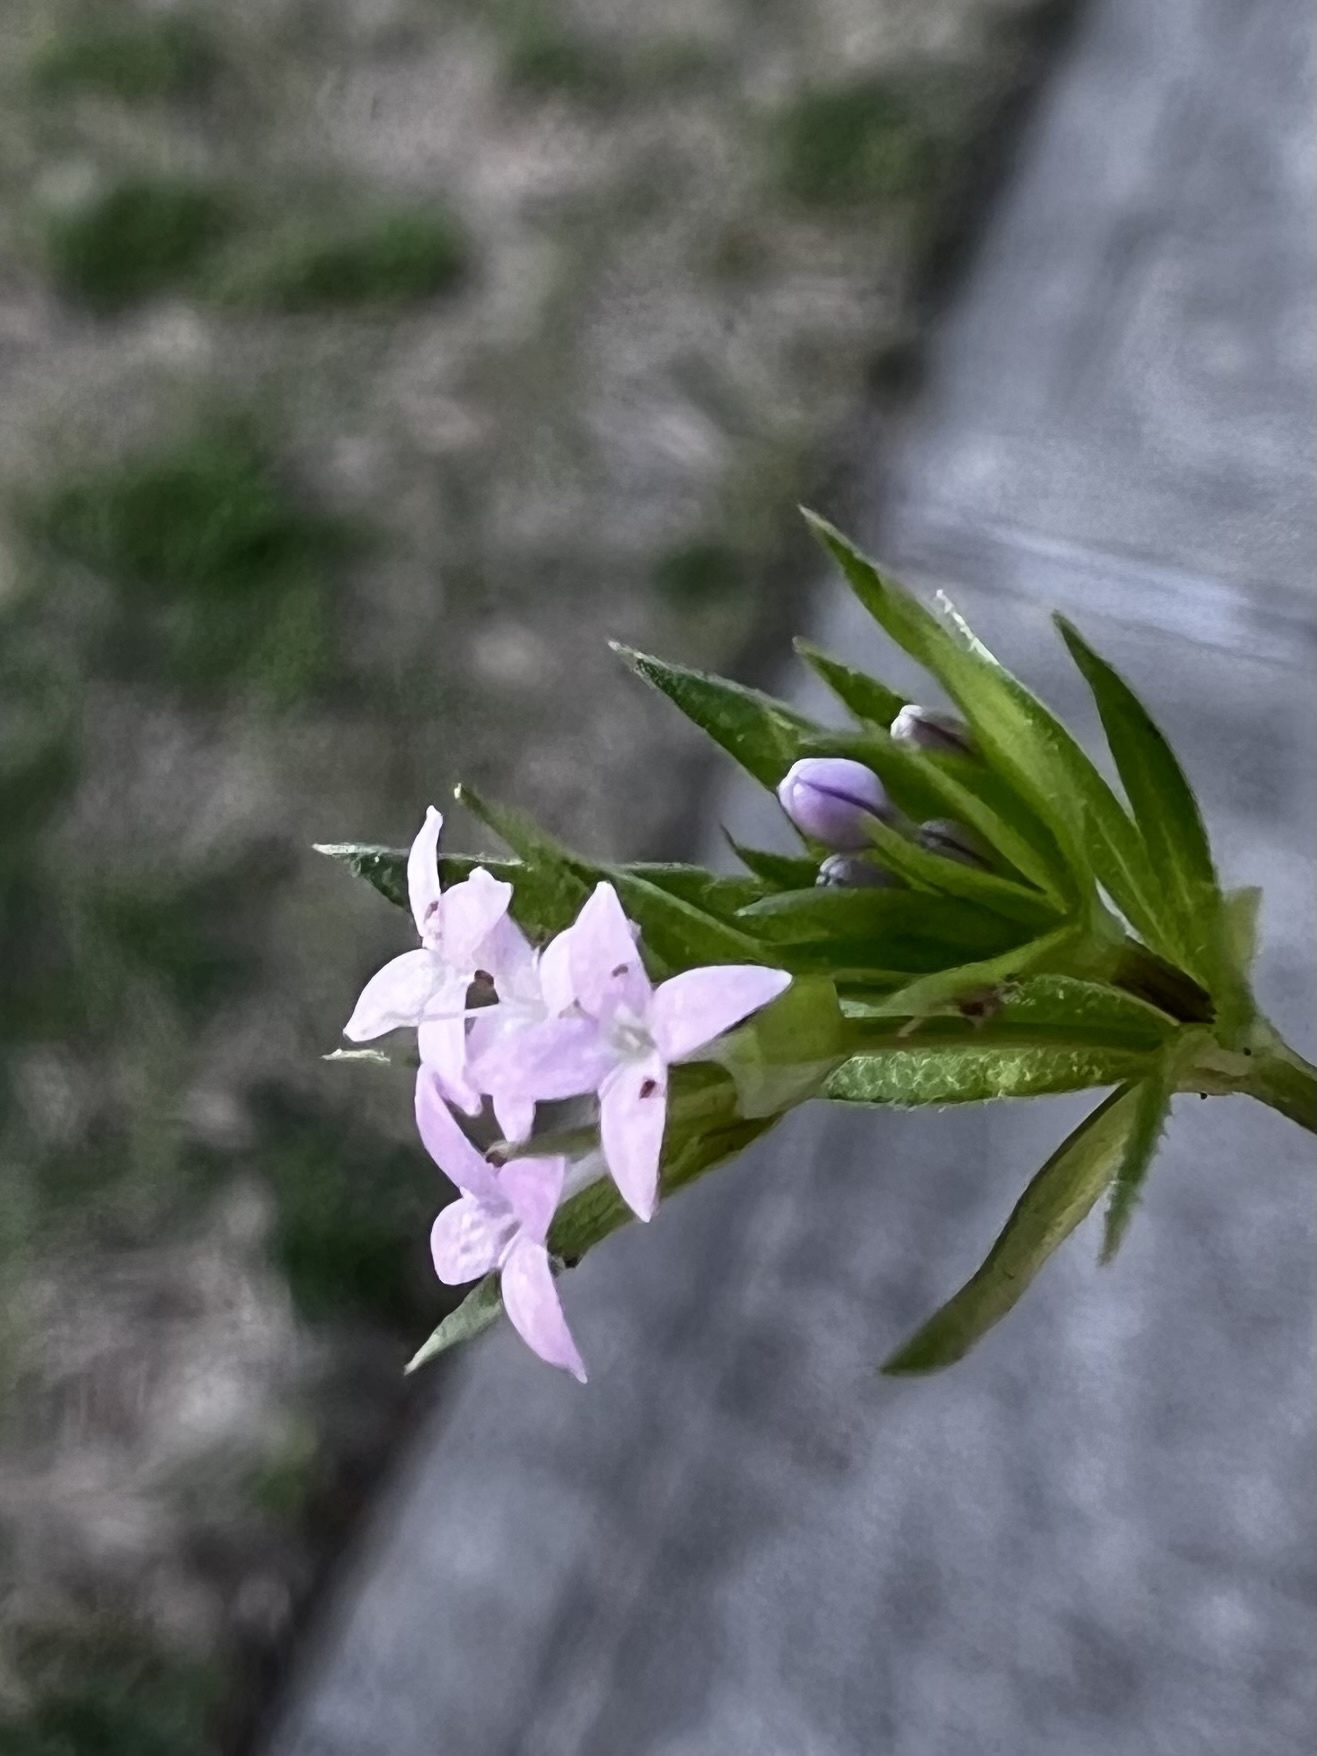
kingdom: Plantae
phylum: Tracheophyta
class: Magnoliopsida
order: Gentianales
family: Rubiaceae
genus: Sherardia
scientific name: Sherardia arvensis
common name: Field madder
